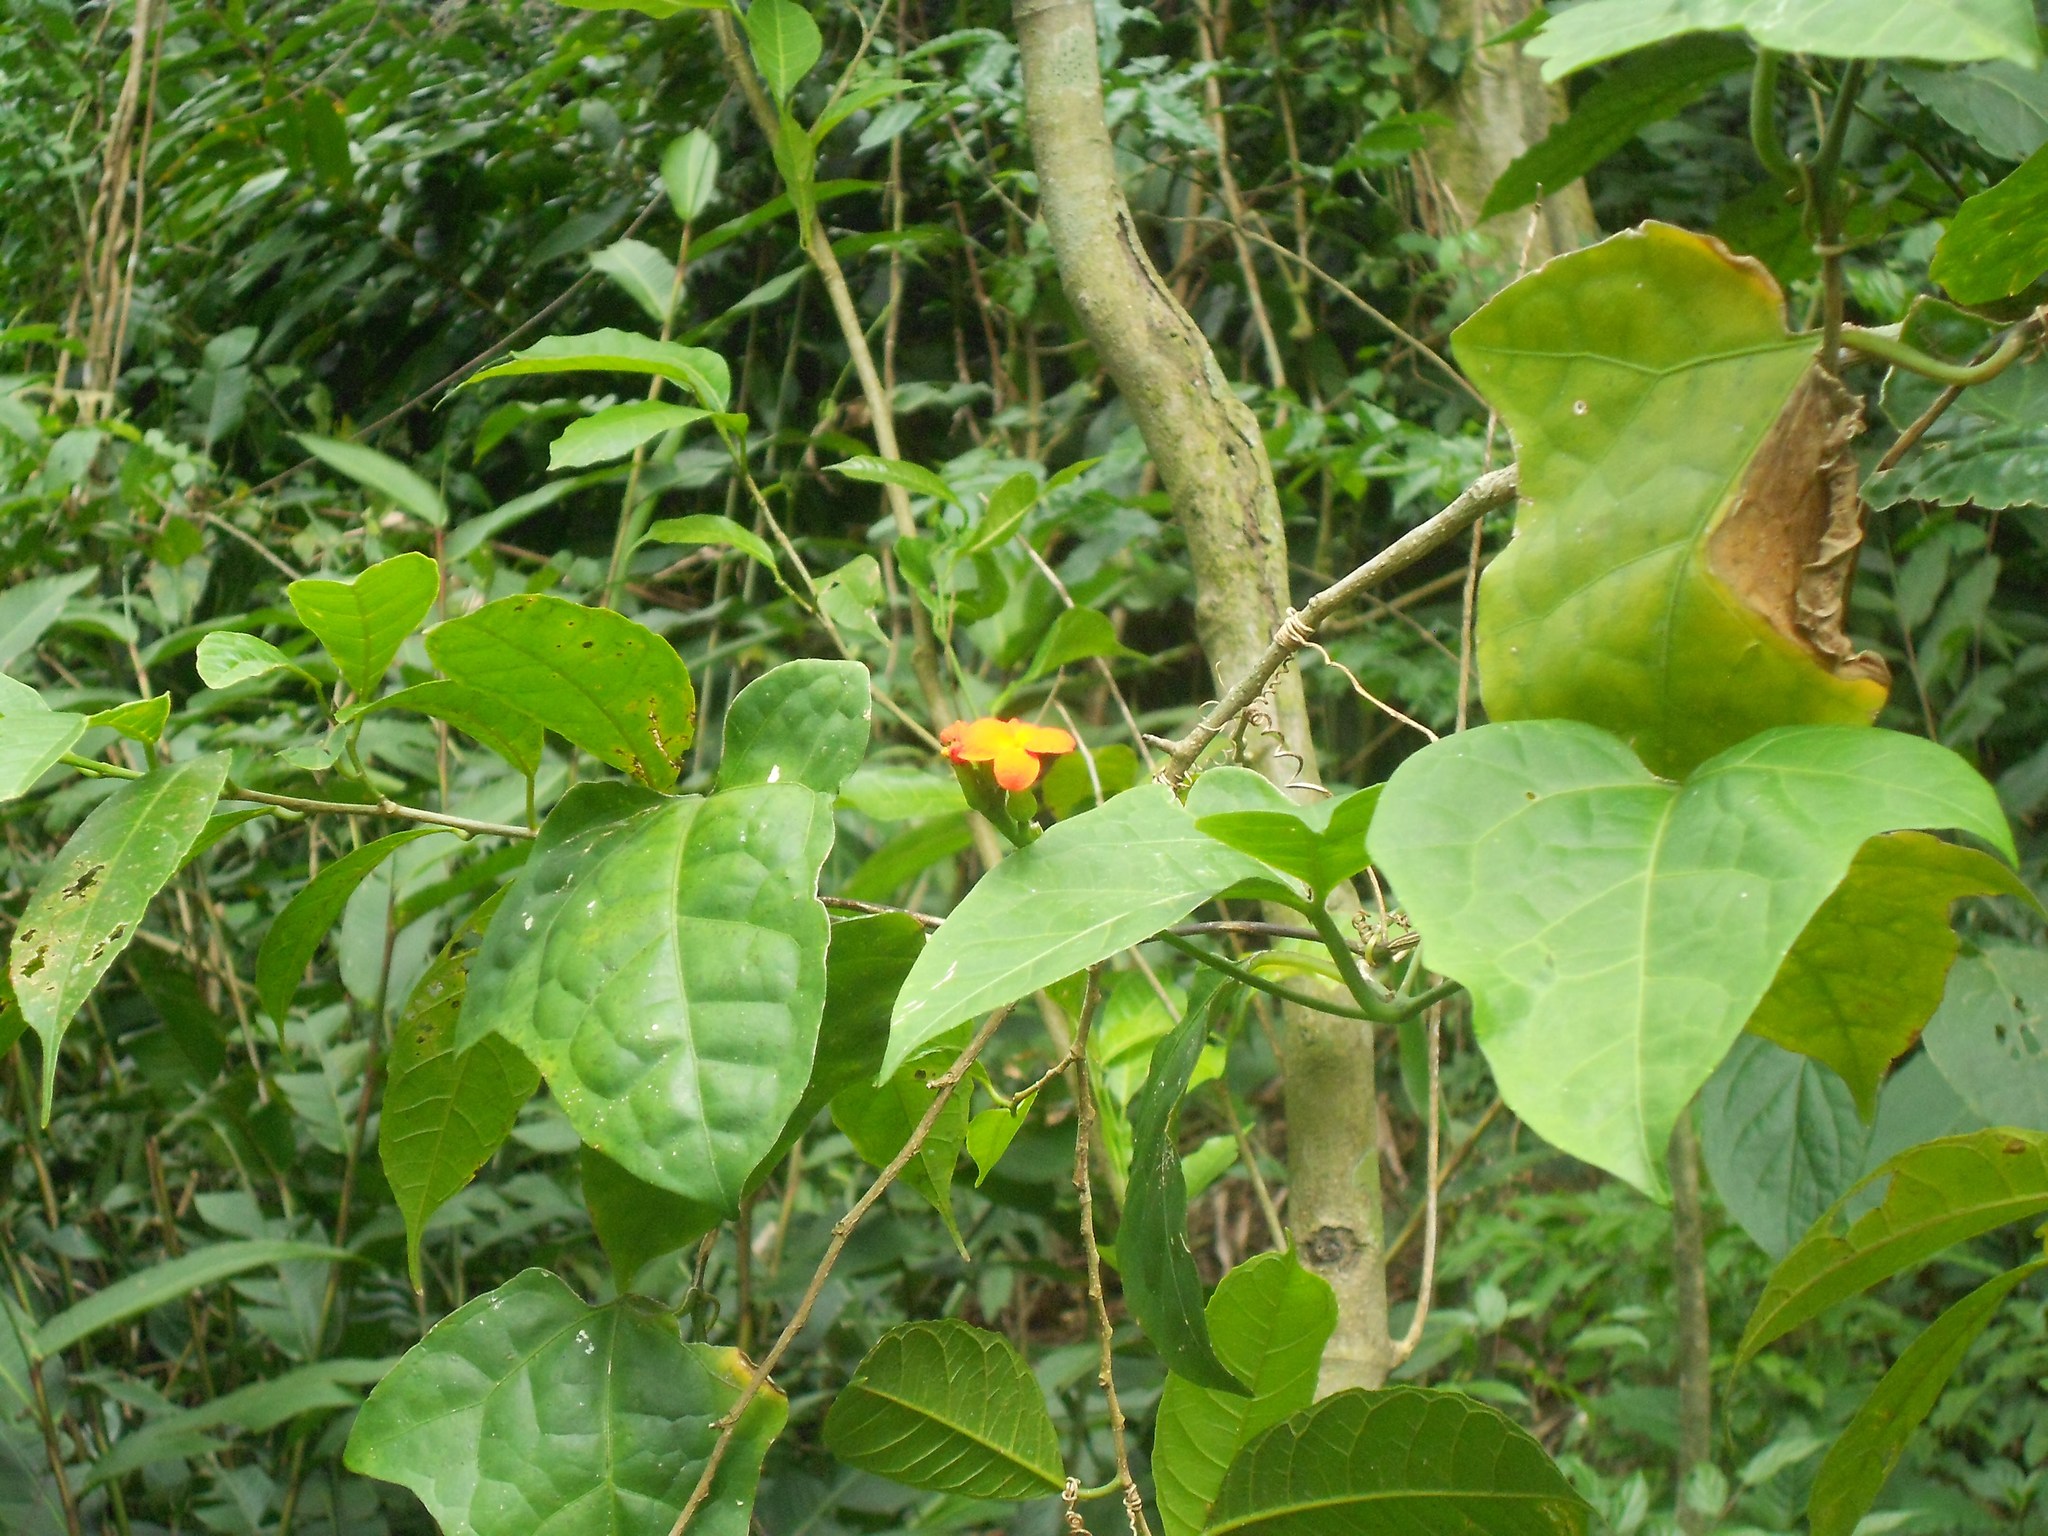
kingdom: Plantae
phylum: Tracheophyta
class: Magnoliopsida
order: Cucurbitales
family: Cucurbitaceae
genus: Psiguria
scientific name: Psiguria warscewiczii
